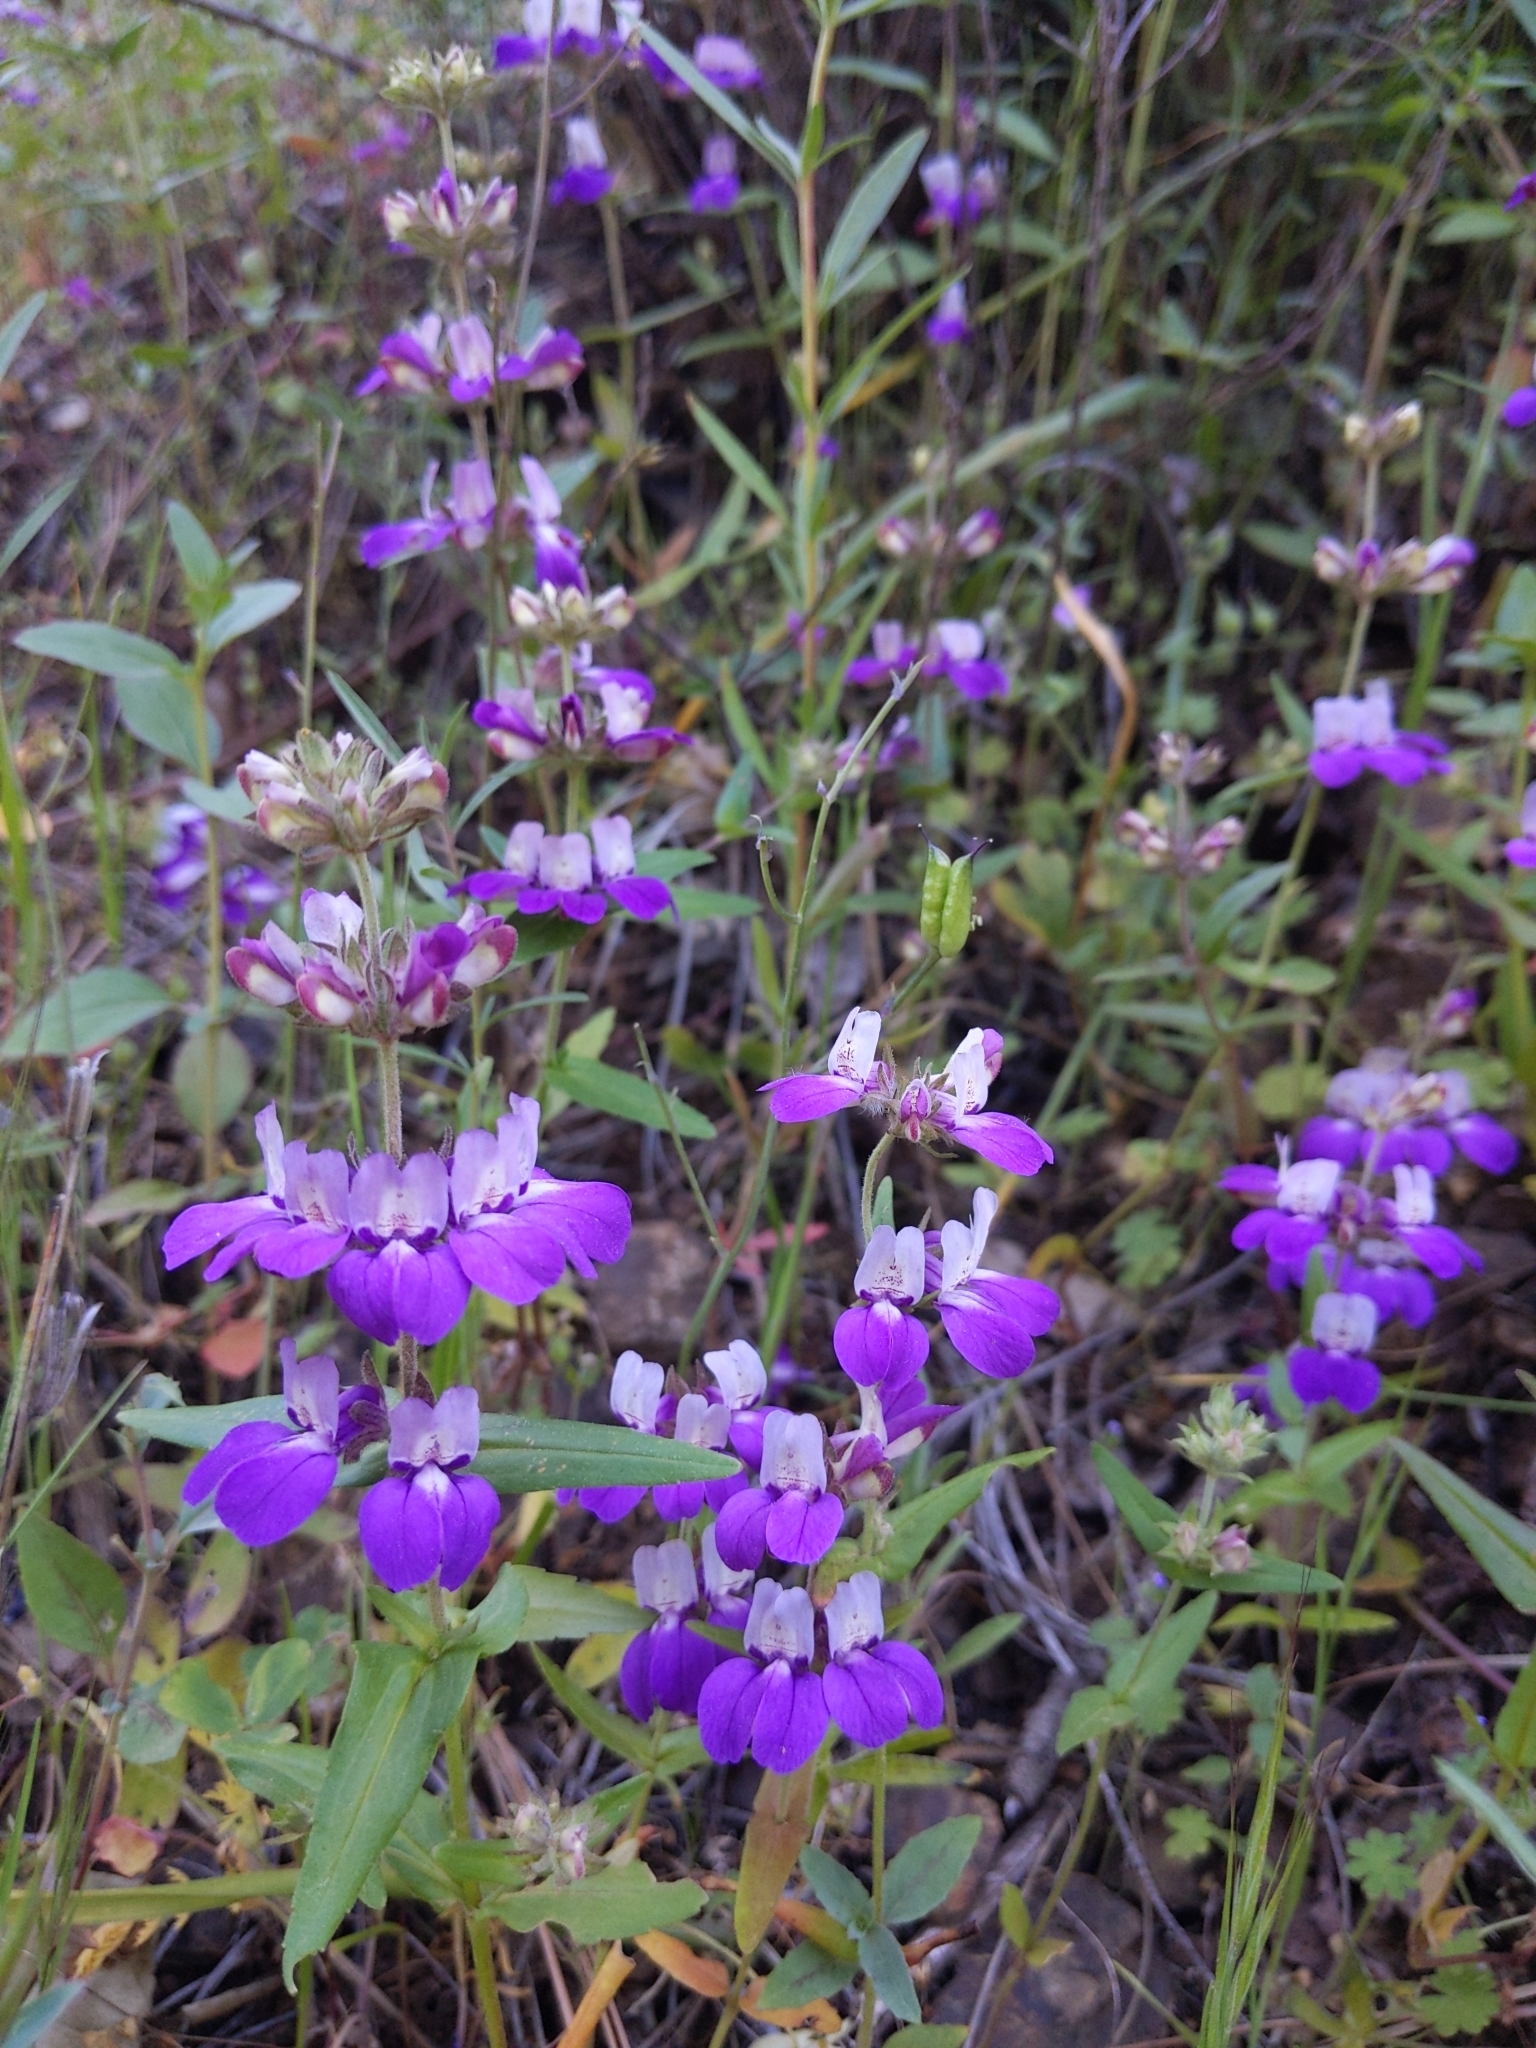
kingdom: Plantae
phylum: Tracheophyta
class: Magnoliopsida
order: Lamiales
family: Plantaginaceae
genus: Collinsia
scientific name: Collinsia heterophylla
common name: Chinese-houses
